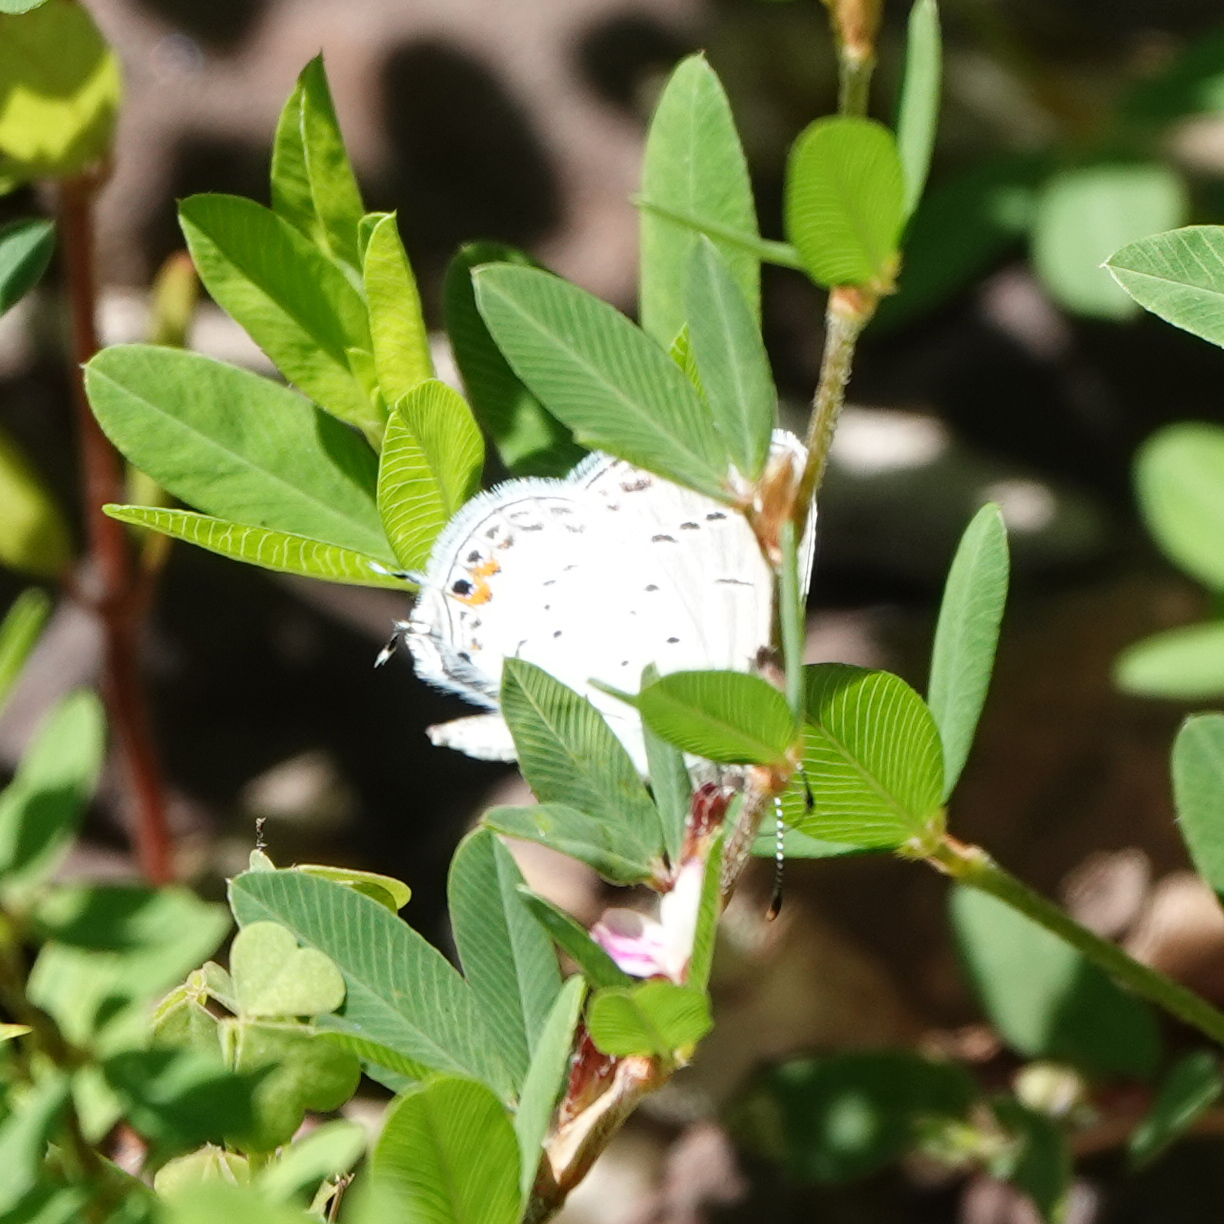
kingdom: Animalia
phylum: Arthropoda
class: Insecta
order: Lepidoptera
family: Lycaenidae
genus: Elkalyce
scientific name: Elkalyce comyntas
